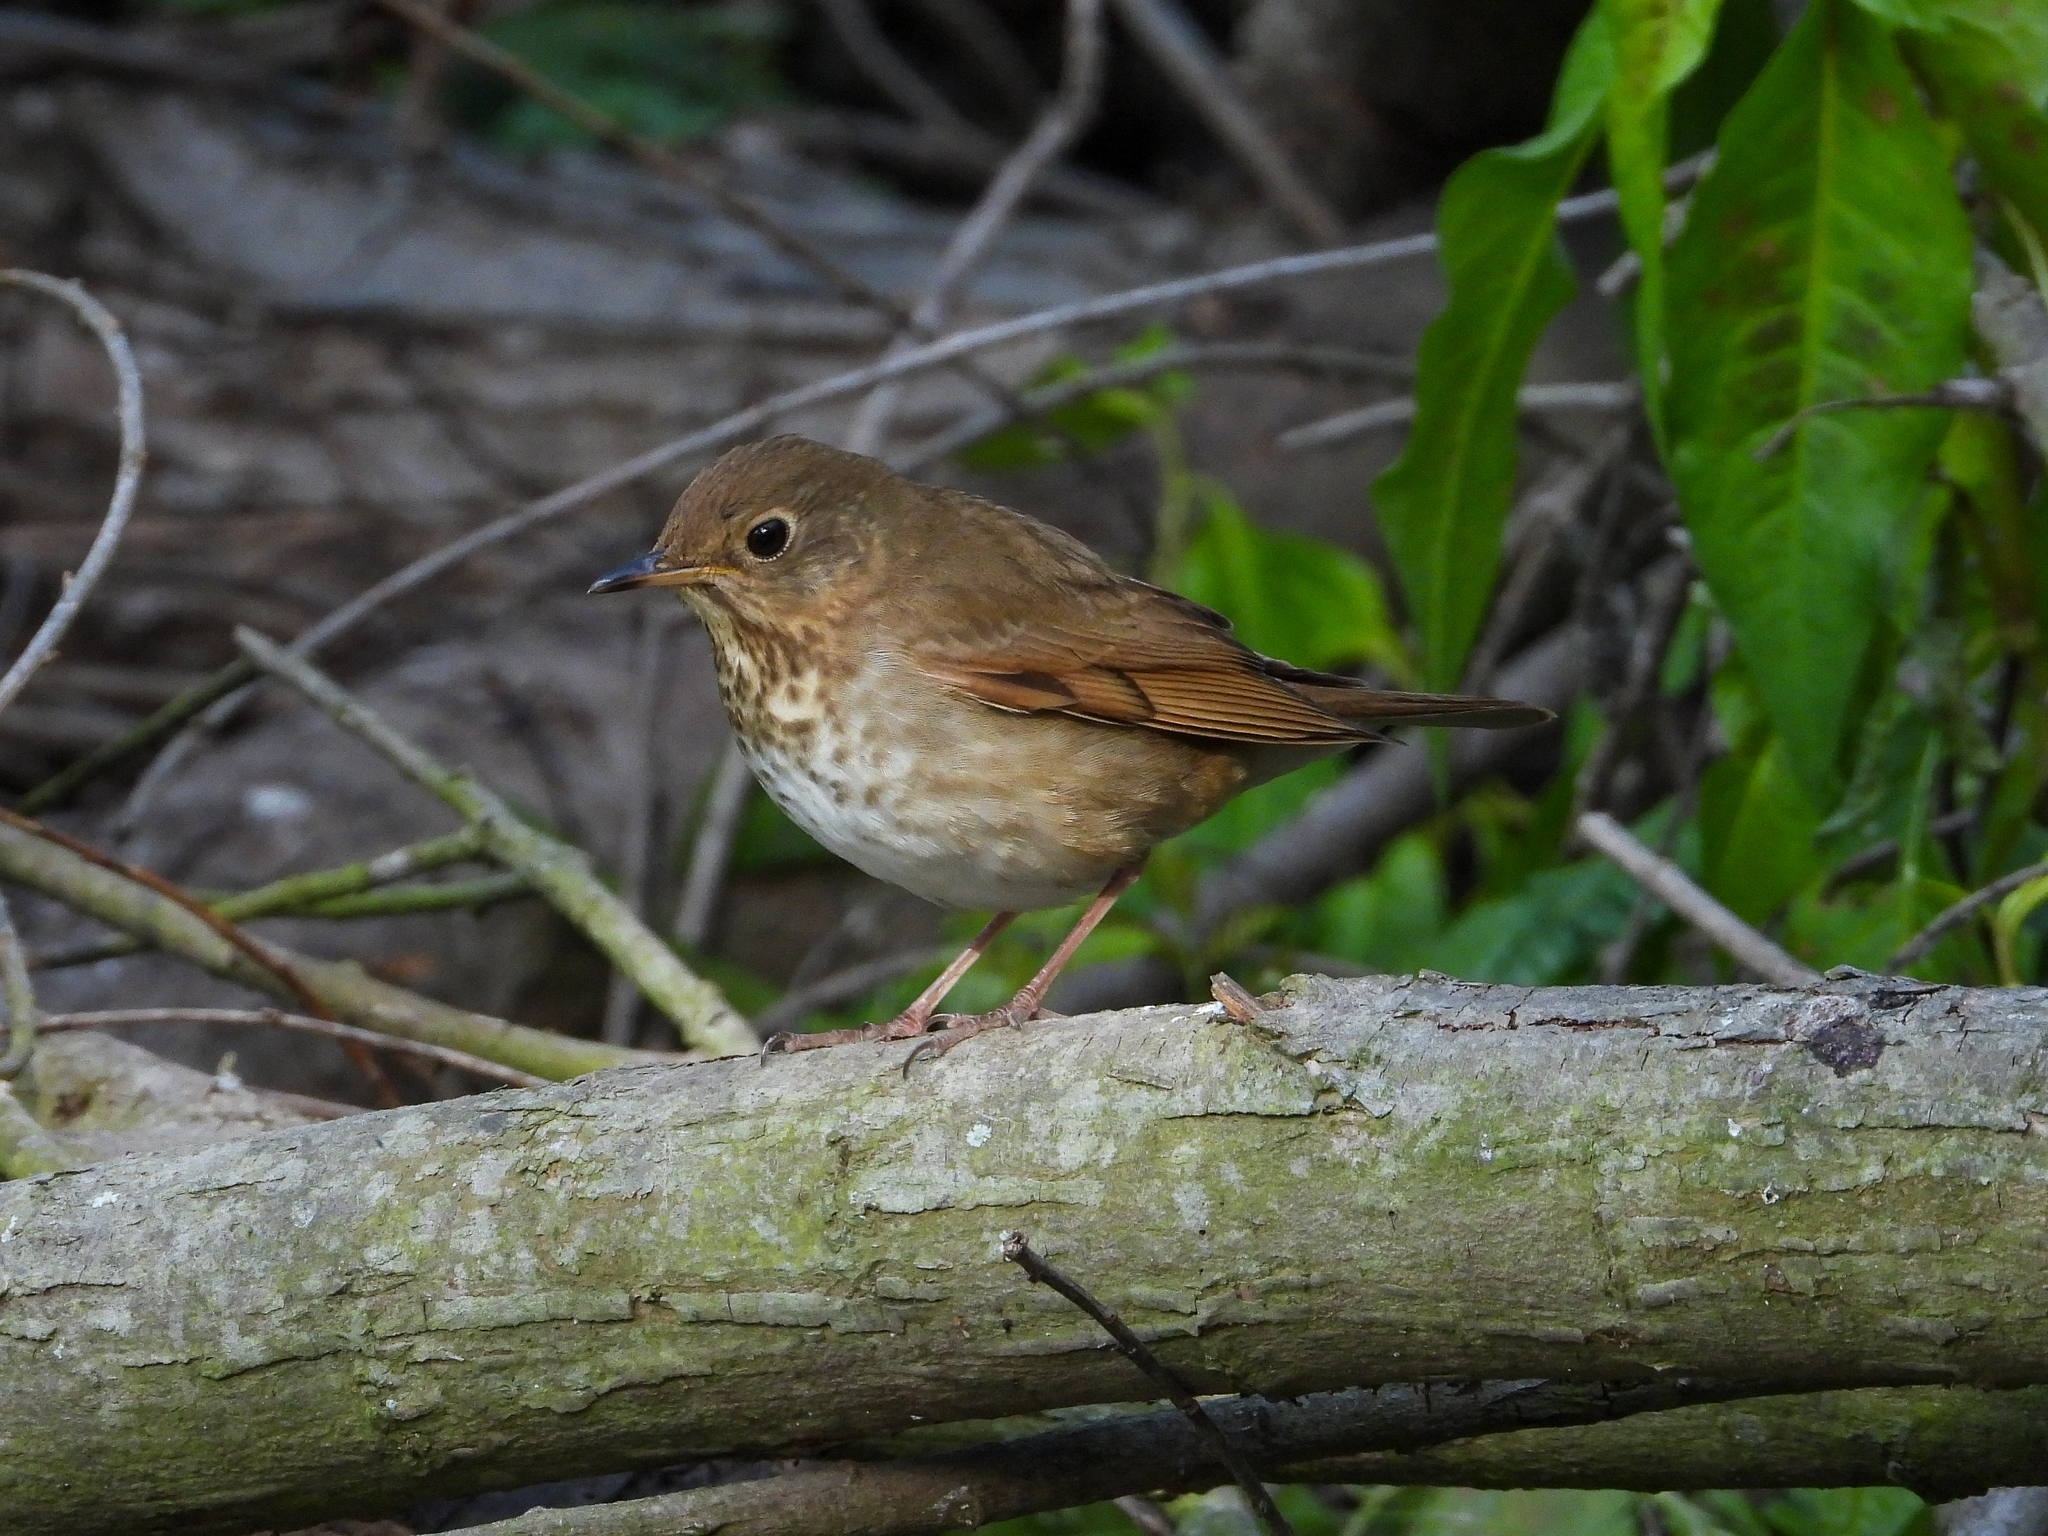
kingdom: Animalia
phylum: Chordata
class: Aves
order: Passeriformes
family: Turdidae
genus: Catharus
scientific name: Catharus ustulatus
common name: Swainson's thrush
